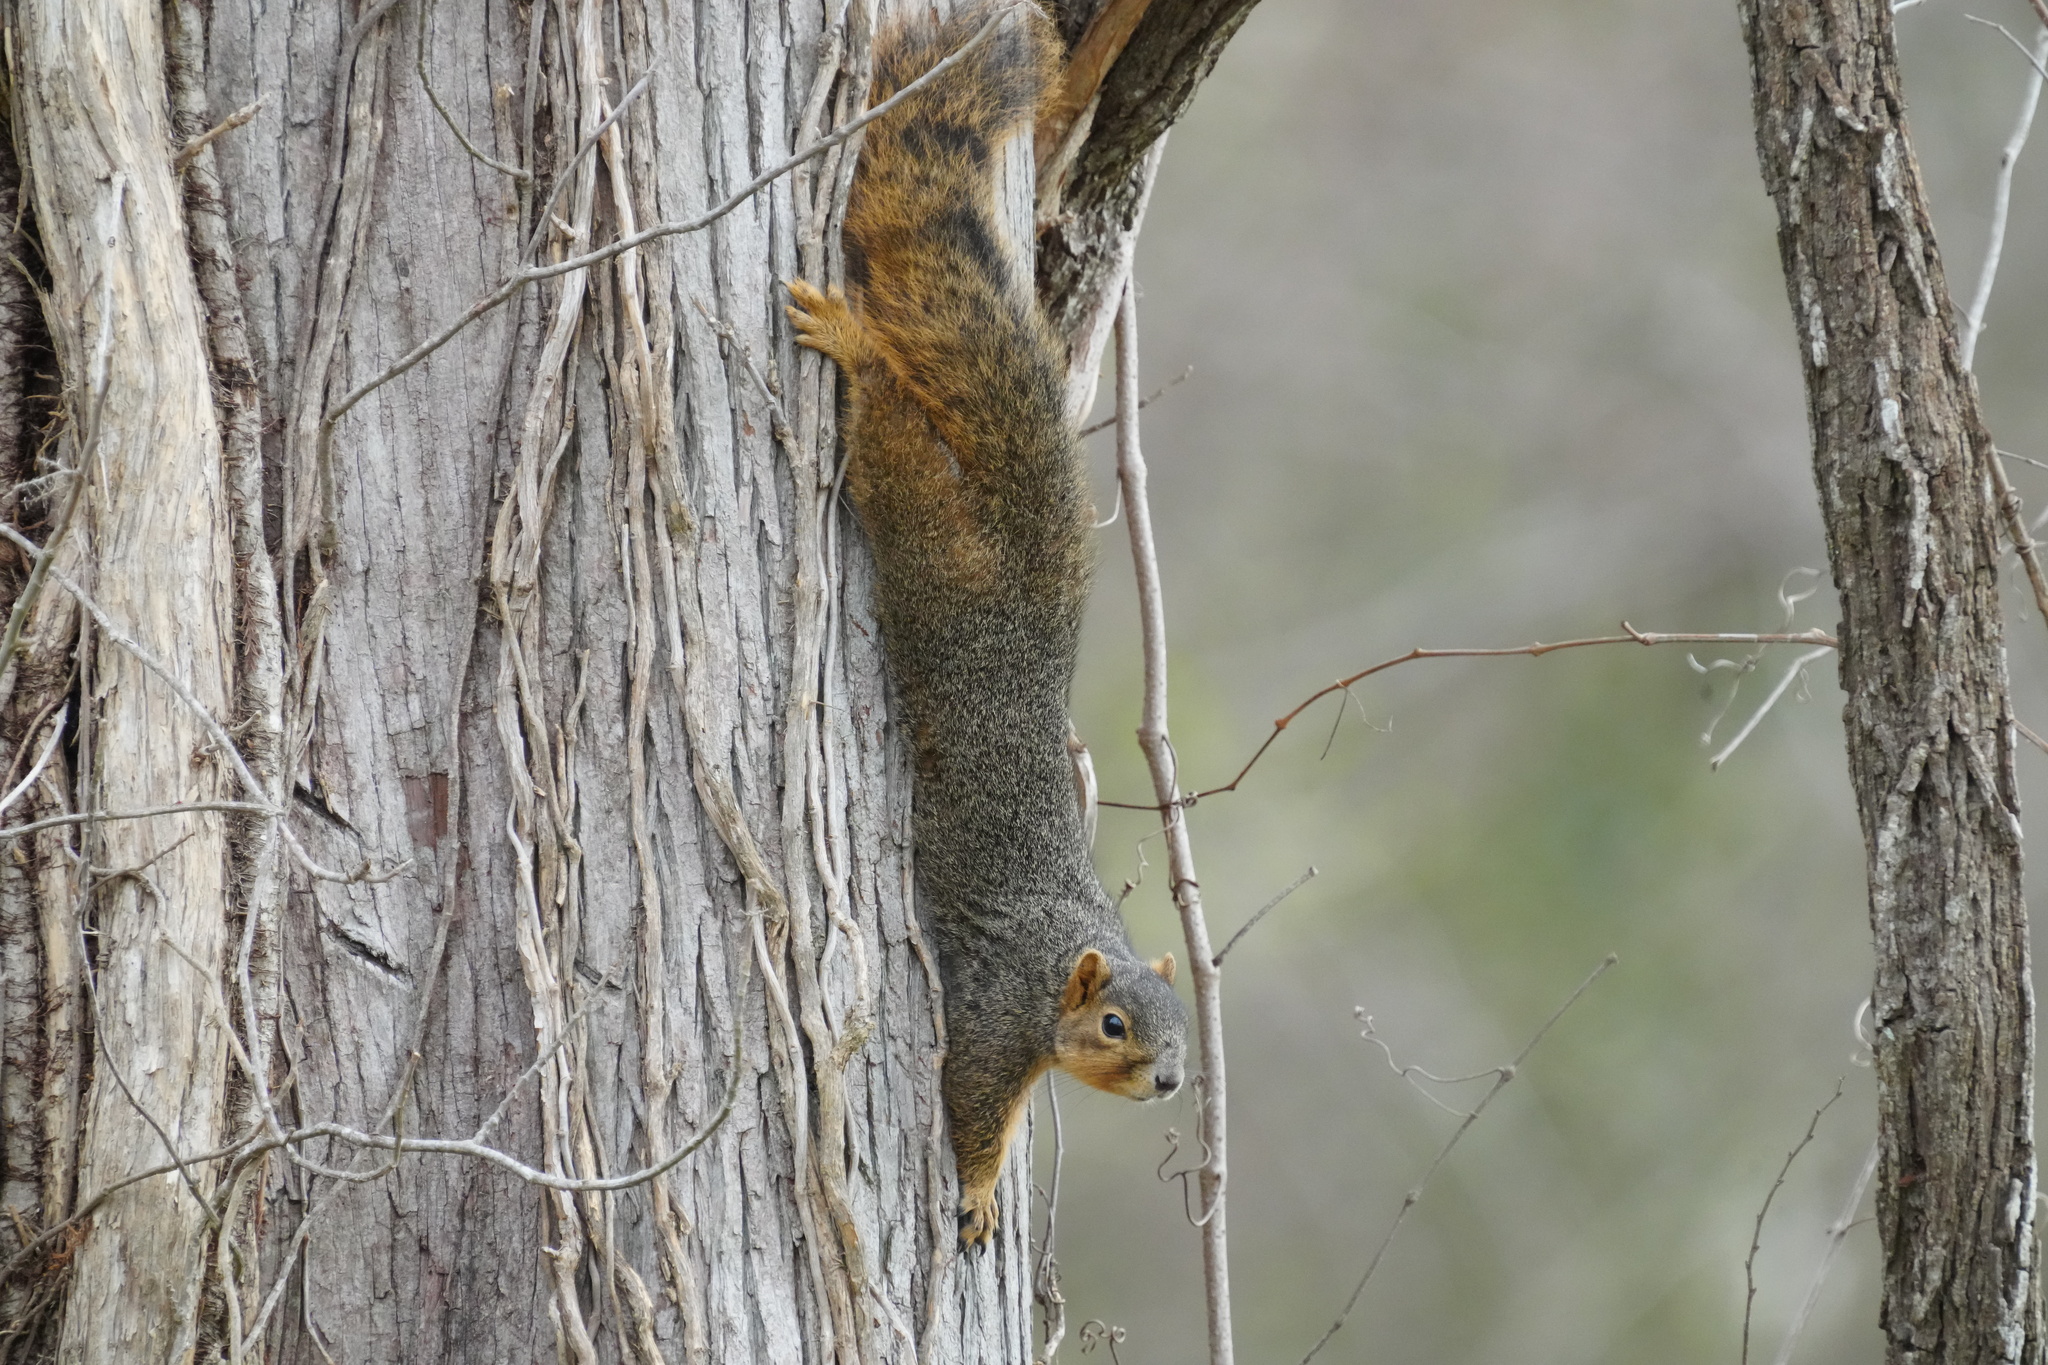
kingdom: Animalia
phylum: Chordata
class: Mammalia
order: Rodentia
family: Sciuridae
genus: Sciurus
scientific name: Sciurus niger
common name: Fox squirrel
